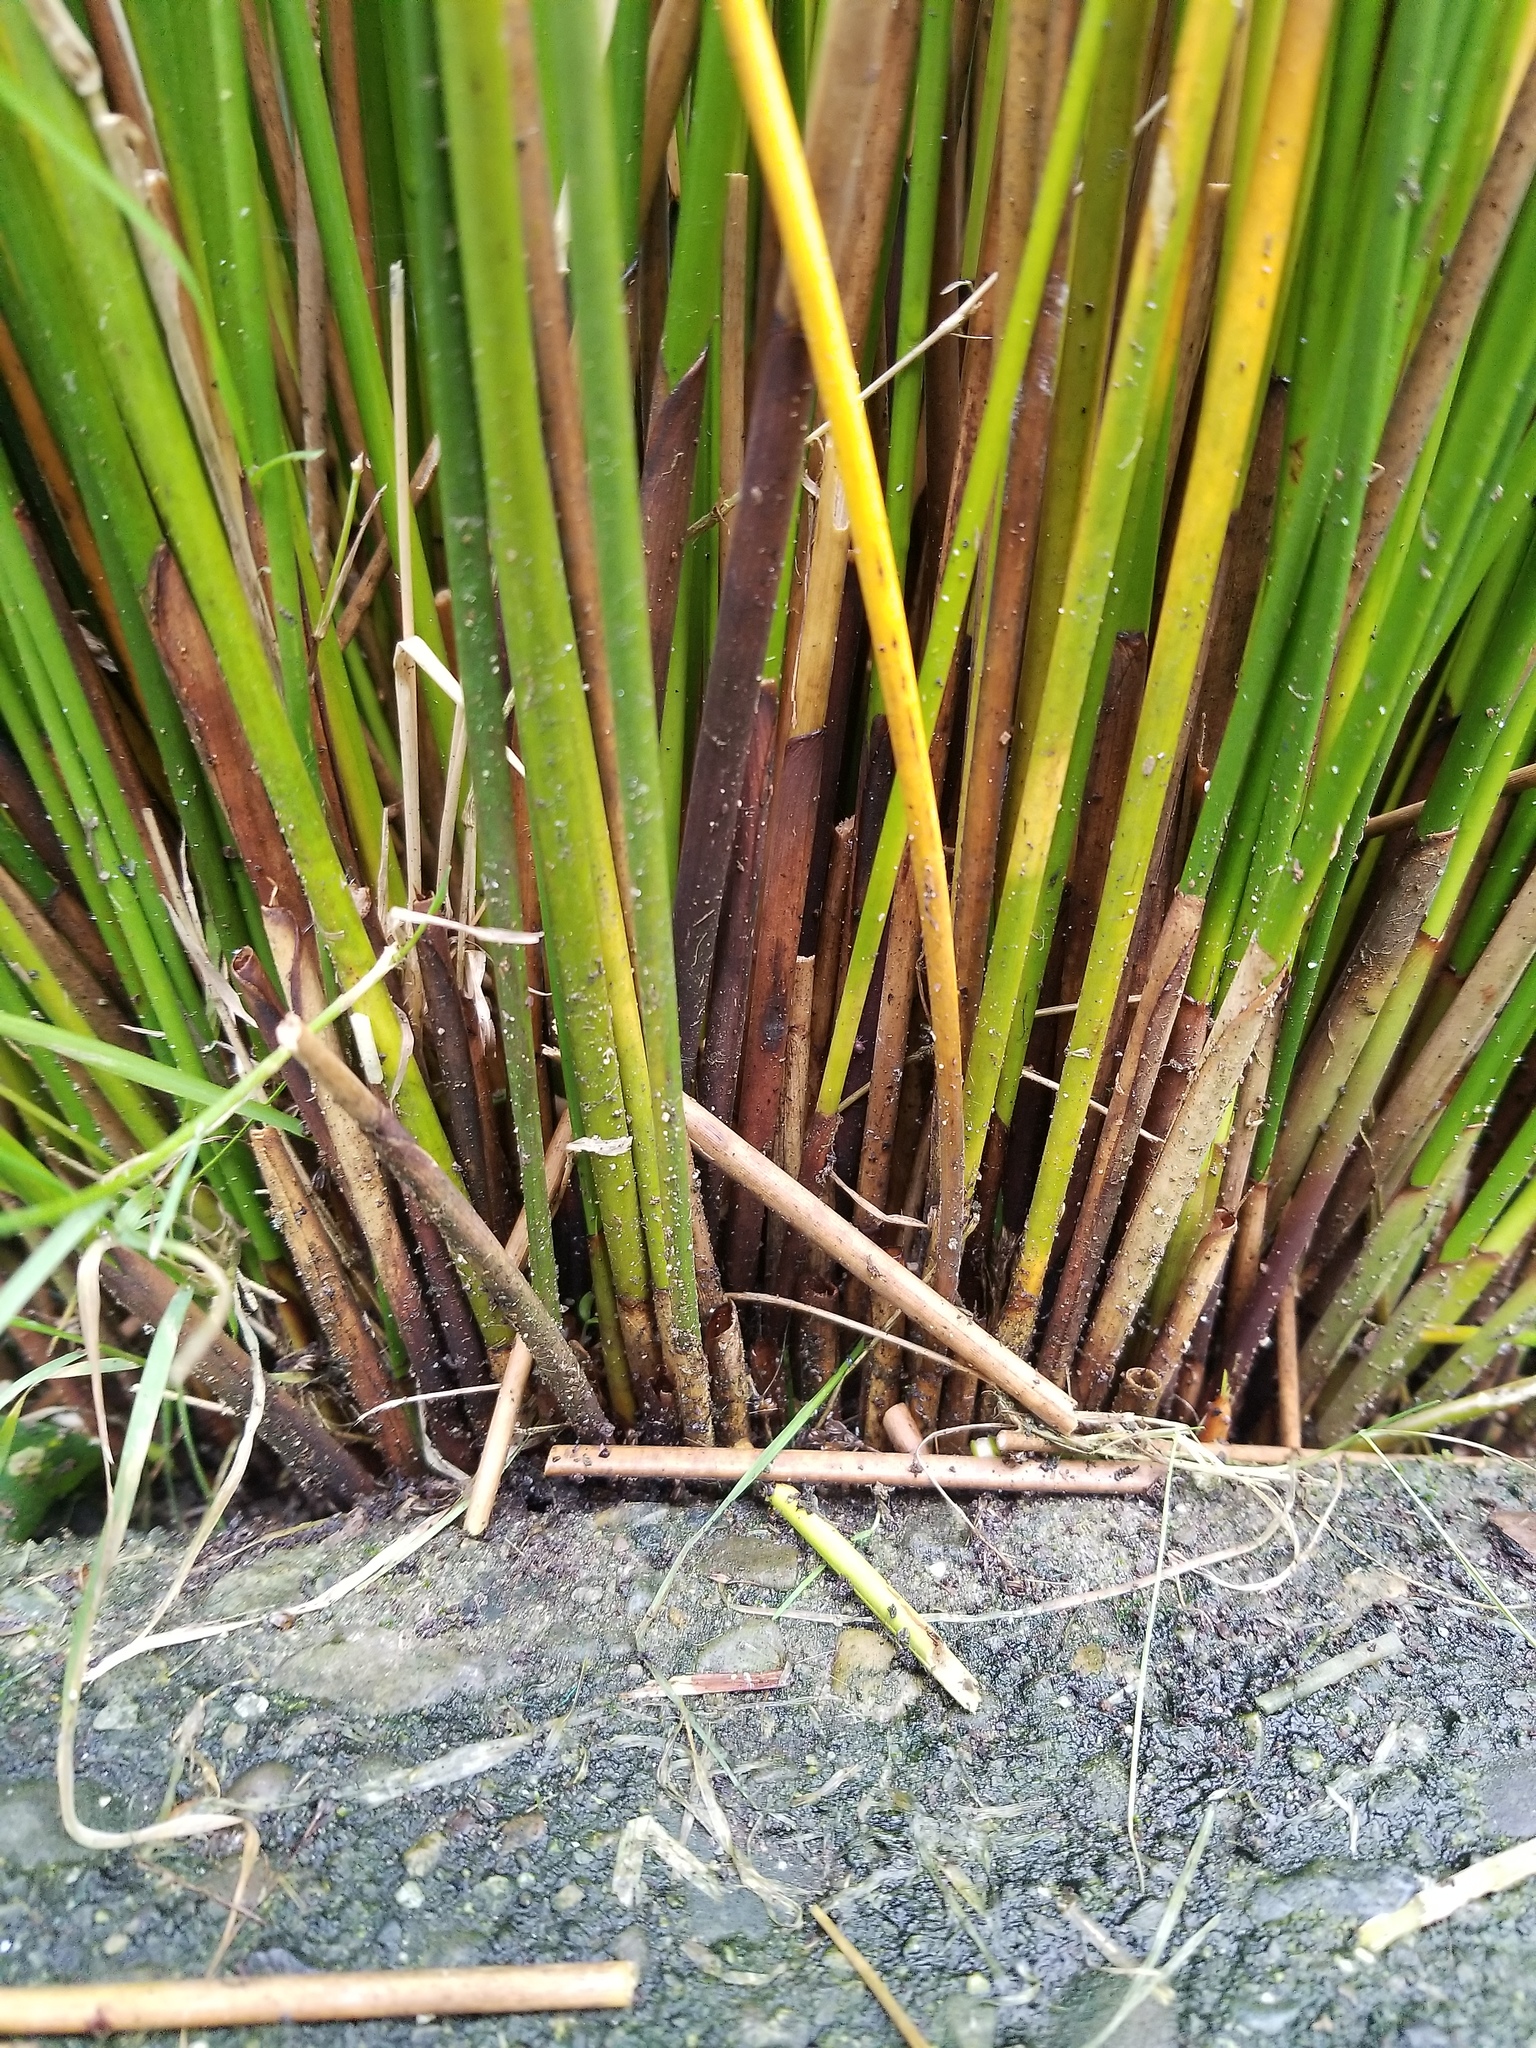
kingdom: Plantae
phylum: Tracheophyta
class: Liliopsida
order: Poales
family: Juncaceae
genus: Juncus
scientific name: Juncus effusus
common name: Soft rush
